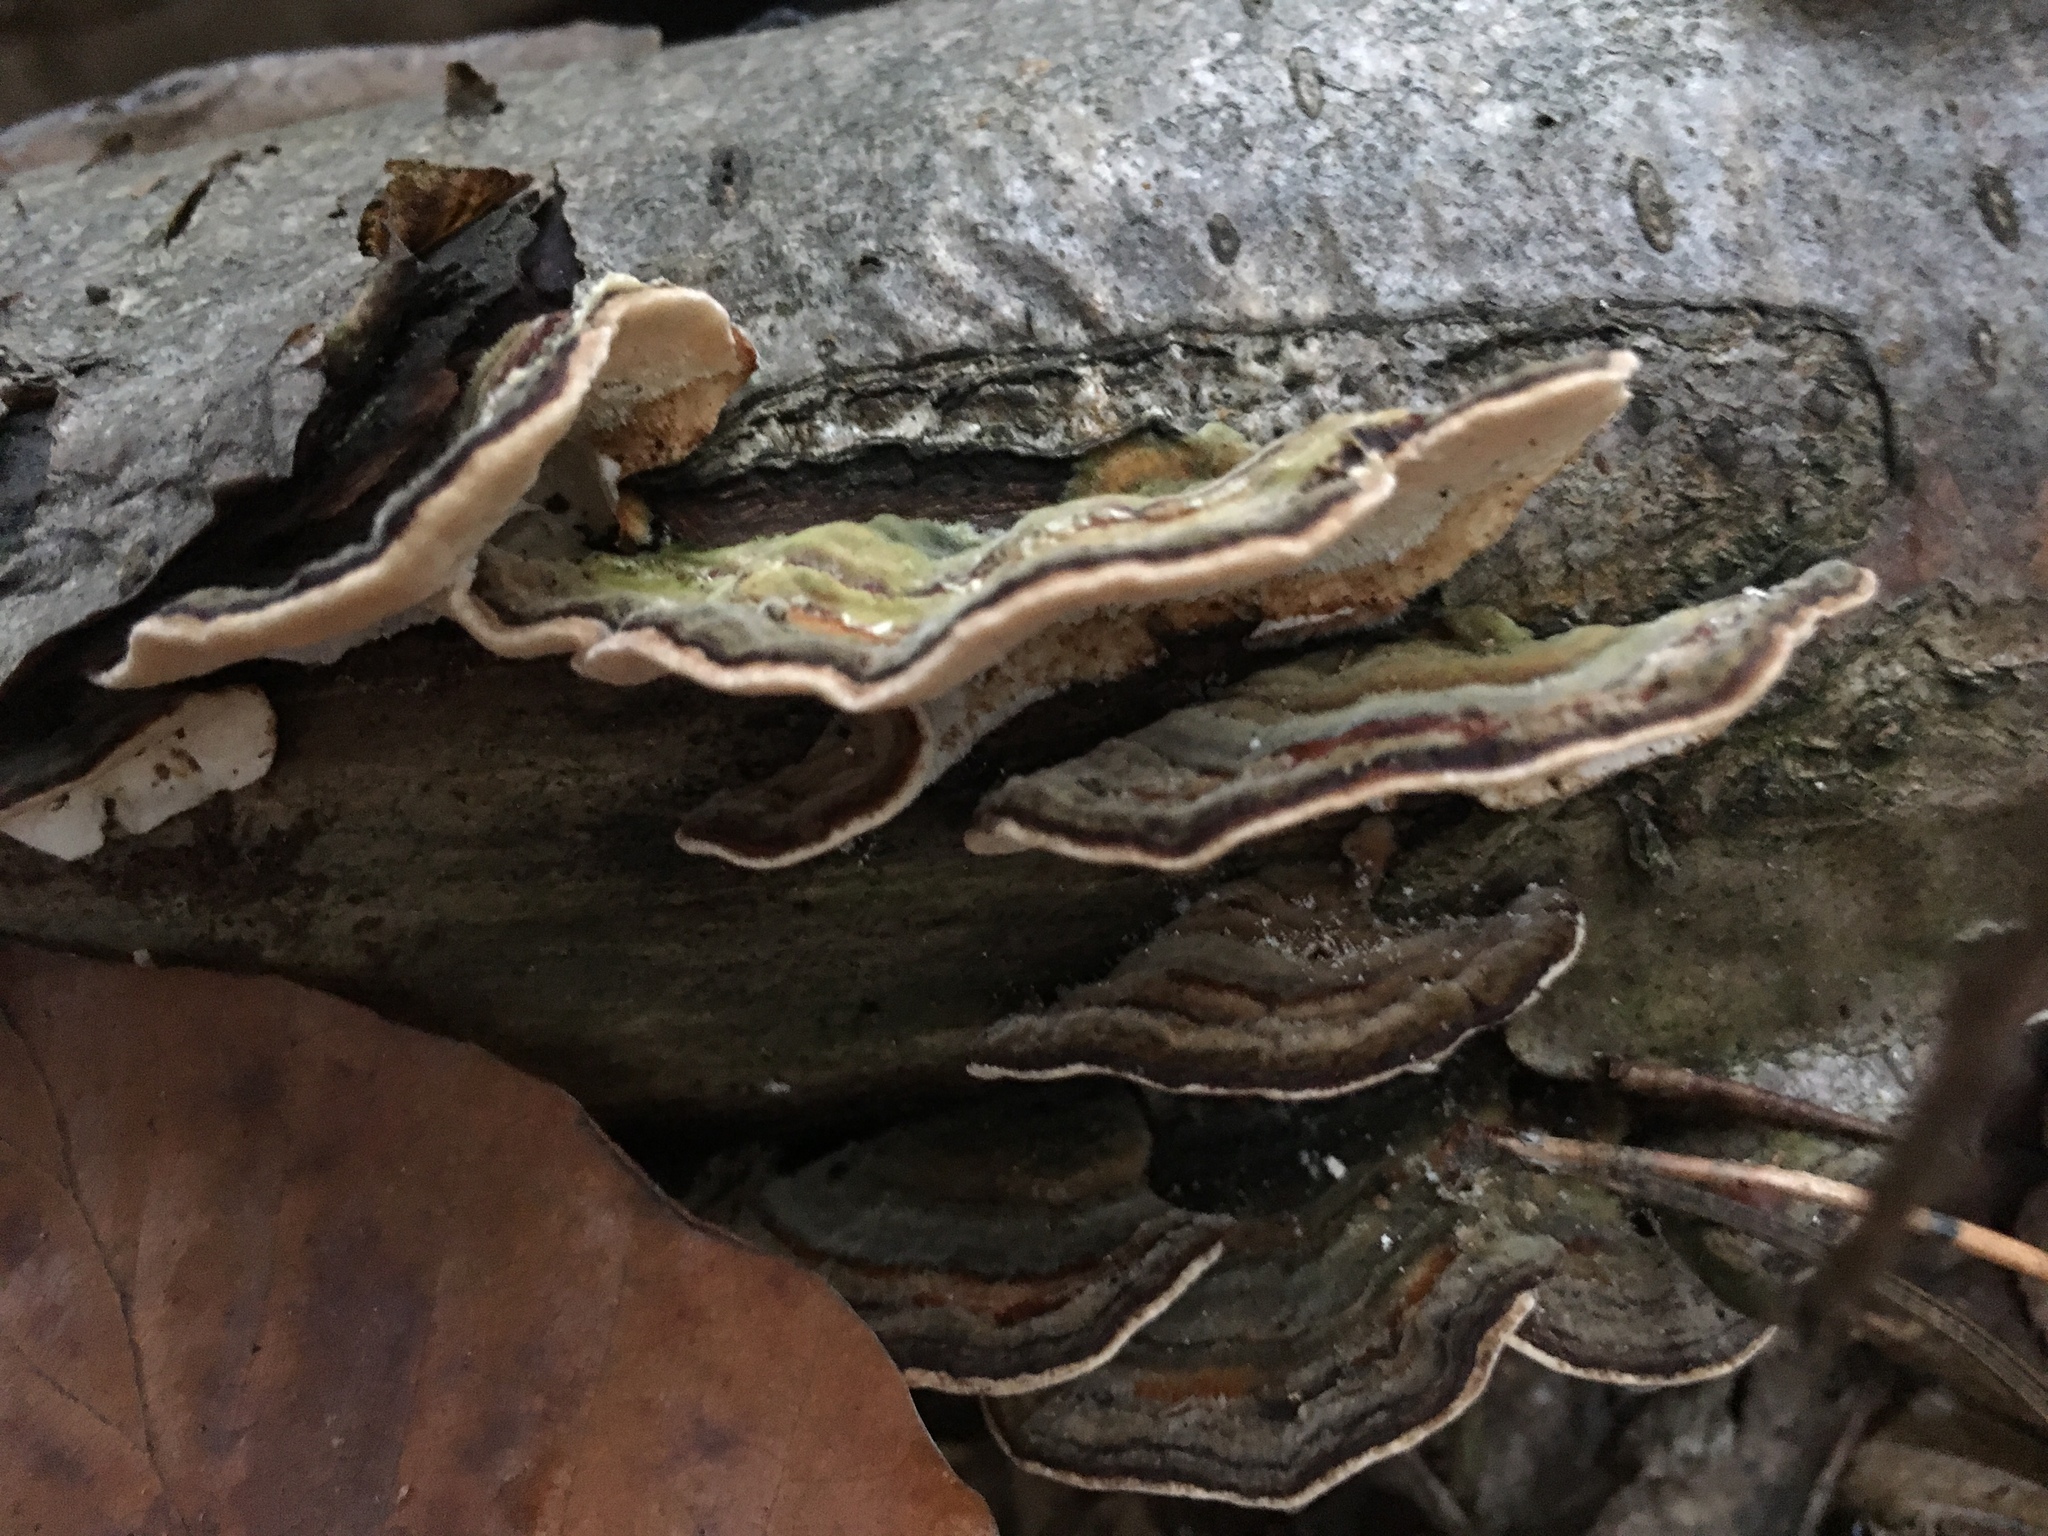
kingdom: Fungi
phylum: Basidiomycota
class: Agaricomycetes
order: Polyporales
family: Polyporaceae
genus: Trametes
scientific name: Trametes versicolor
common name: Turkeytail
